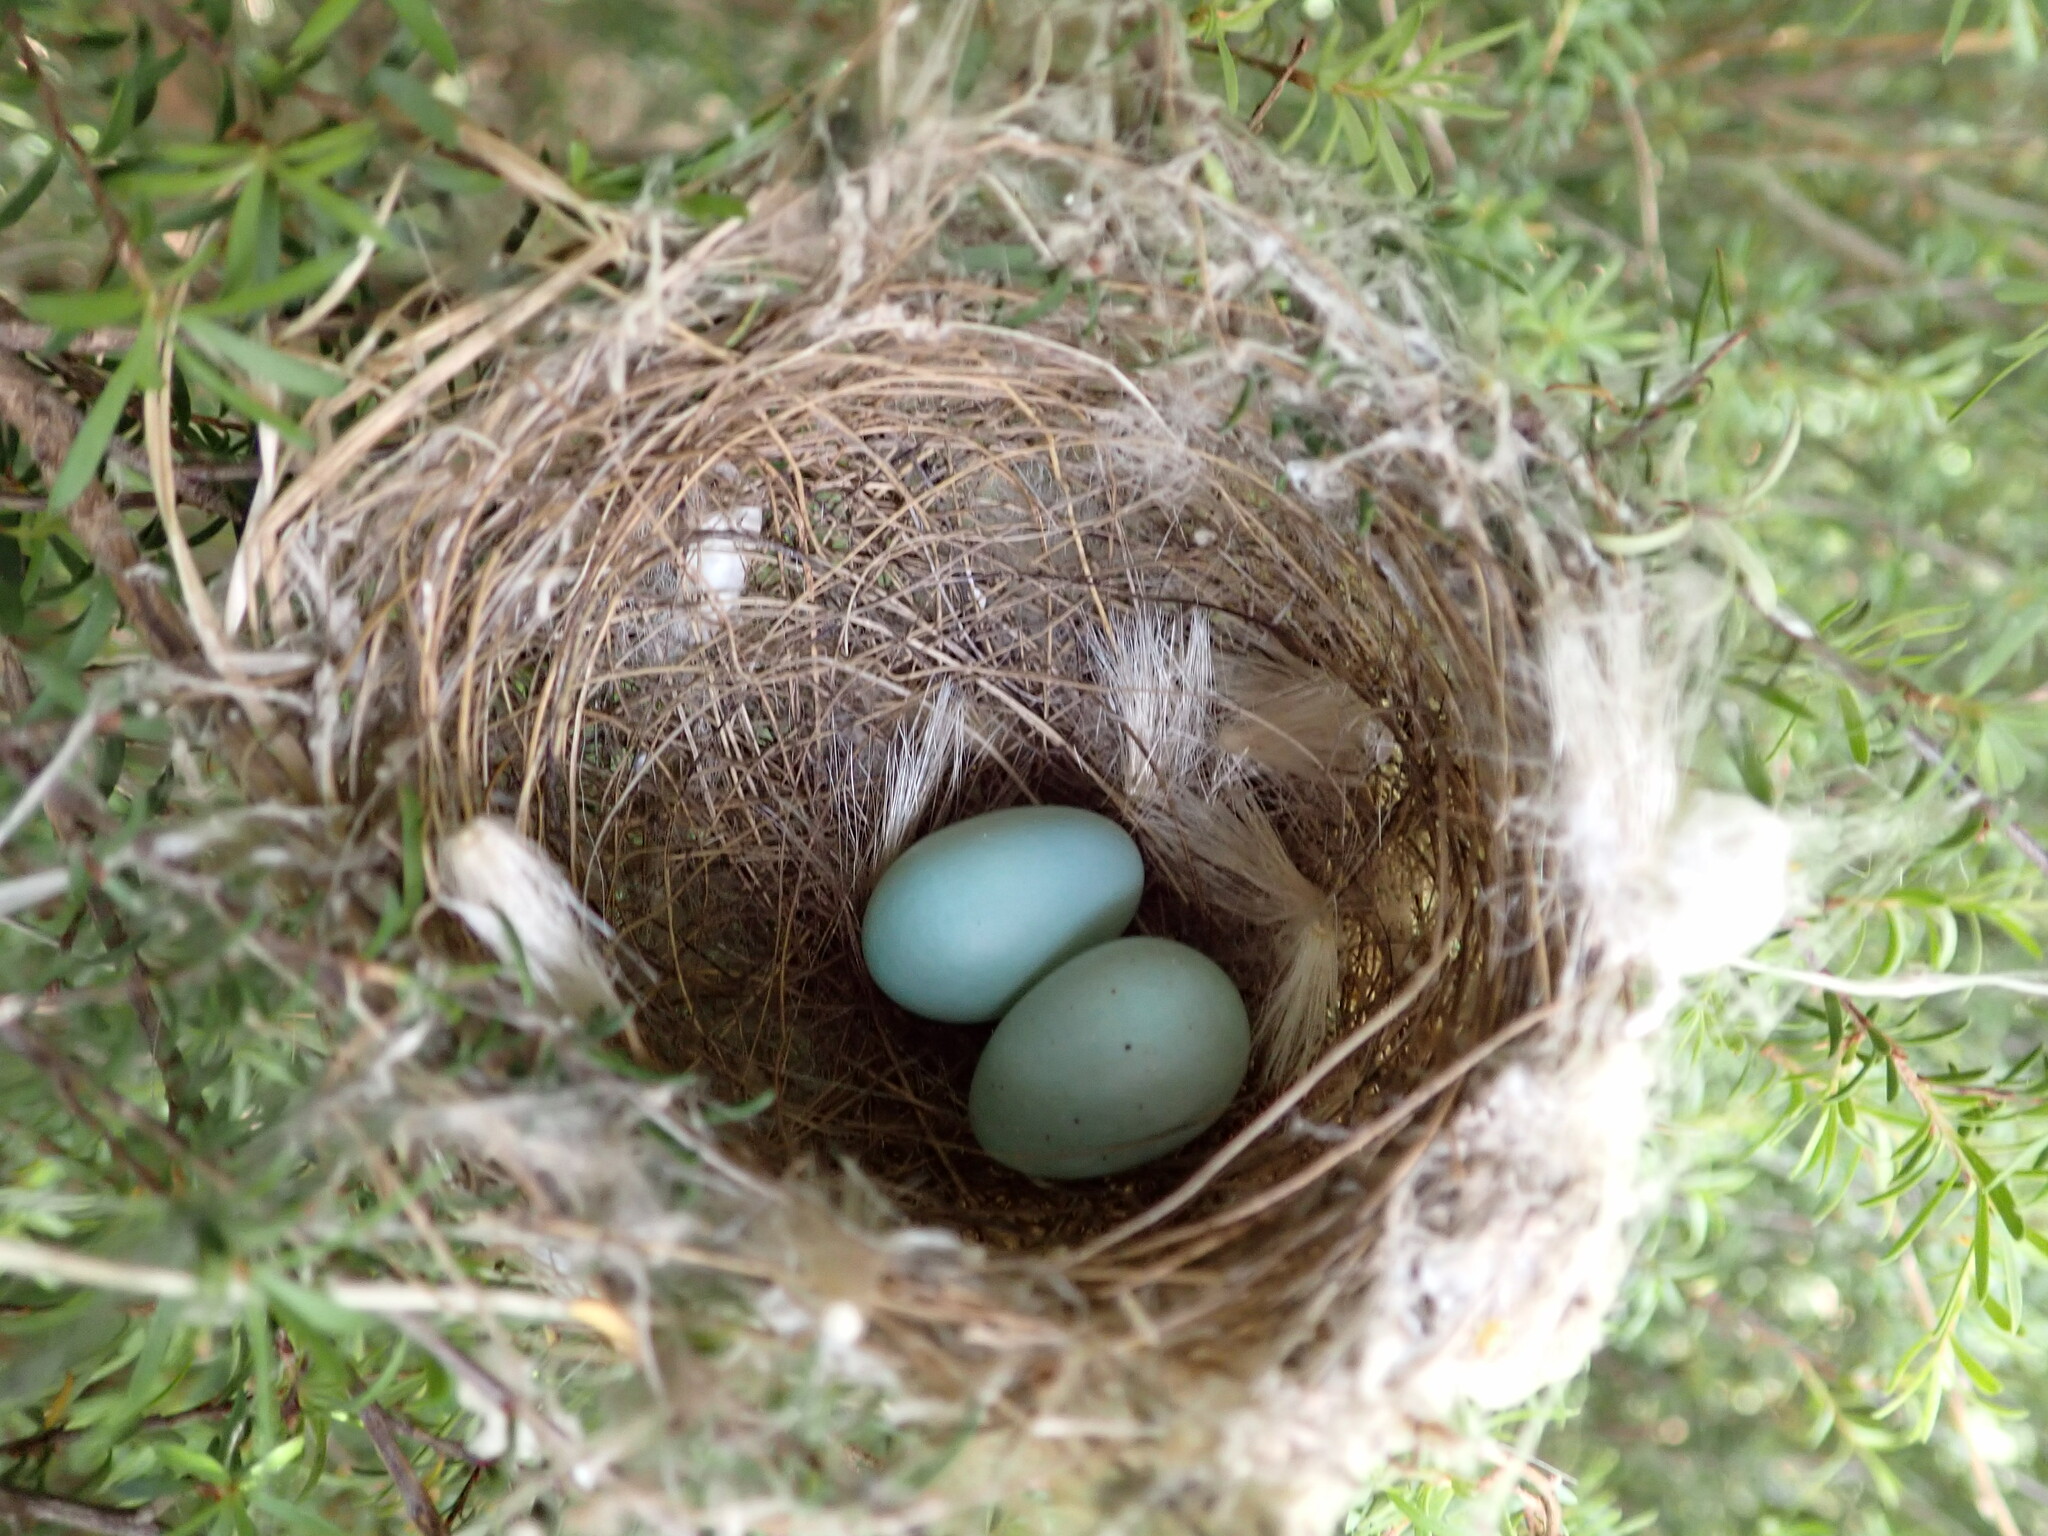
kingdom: Animalia
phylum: Chordata
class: Aves
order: Passeriformes
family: Zosteropidae
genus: Zosterops
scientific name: Zosterops lateralis
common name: Silvereye
